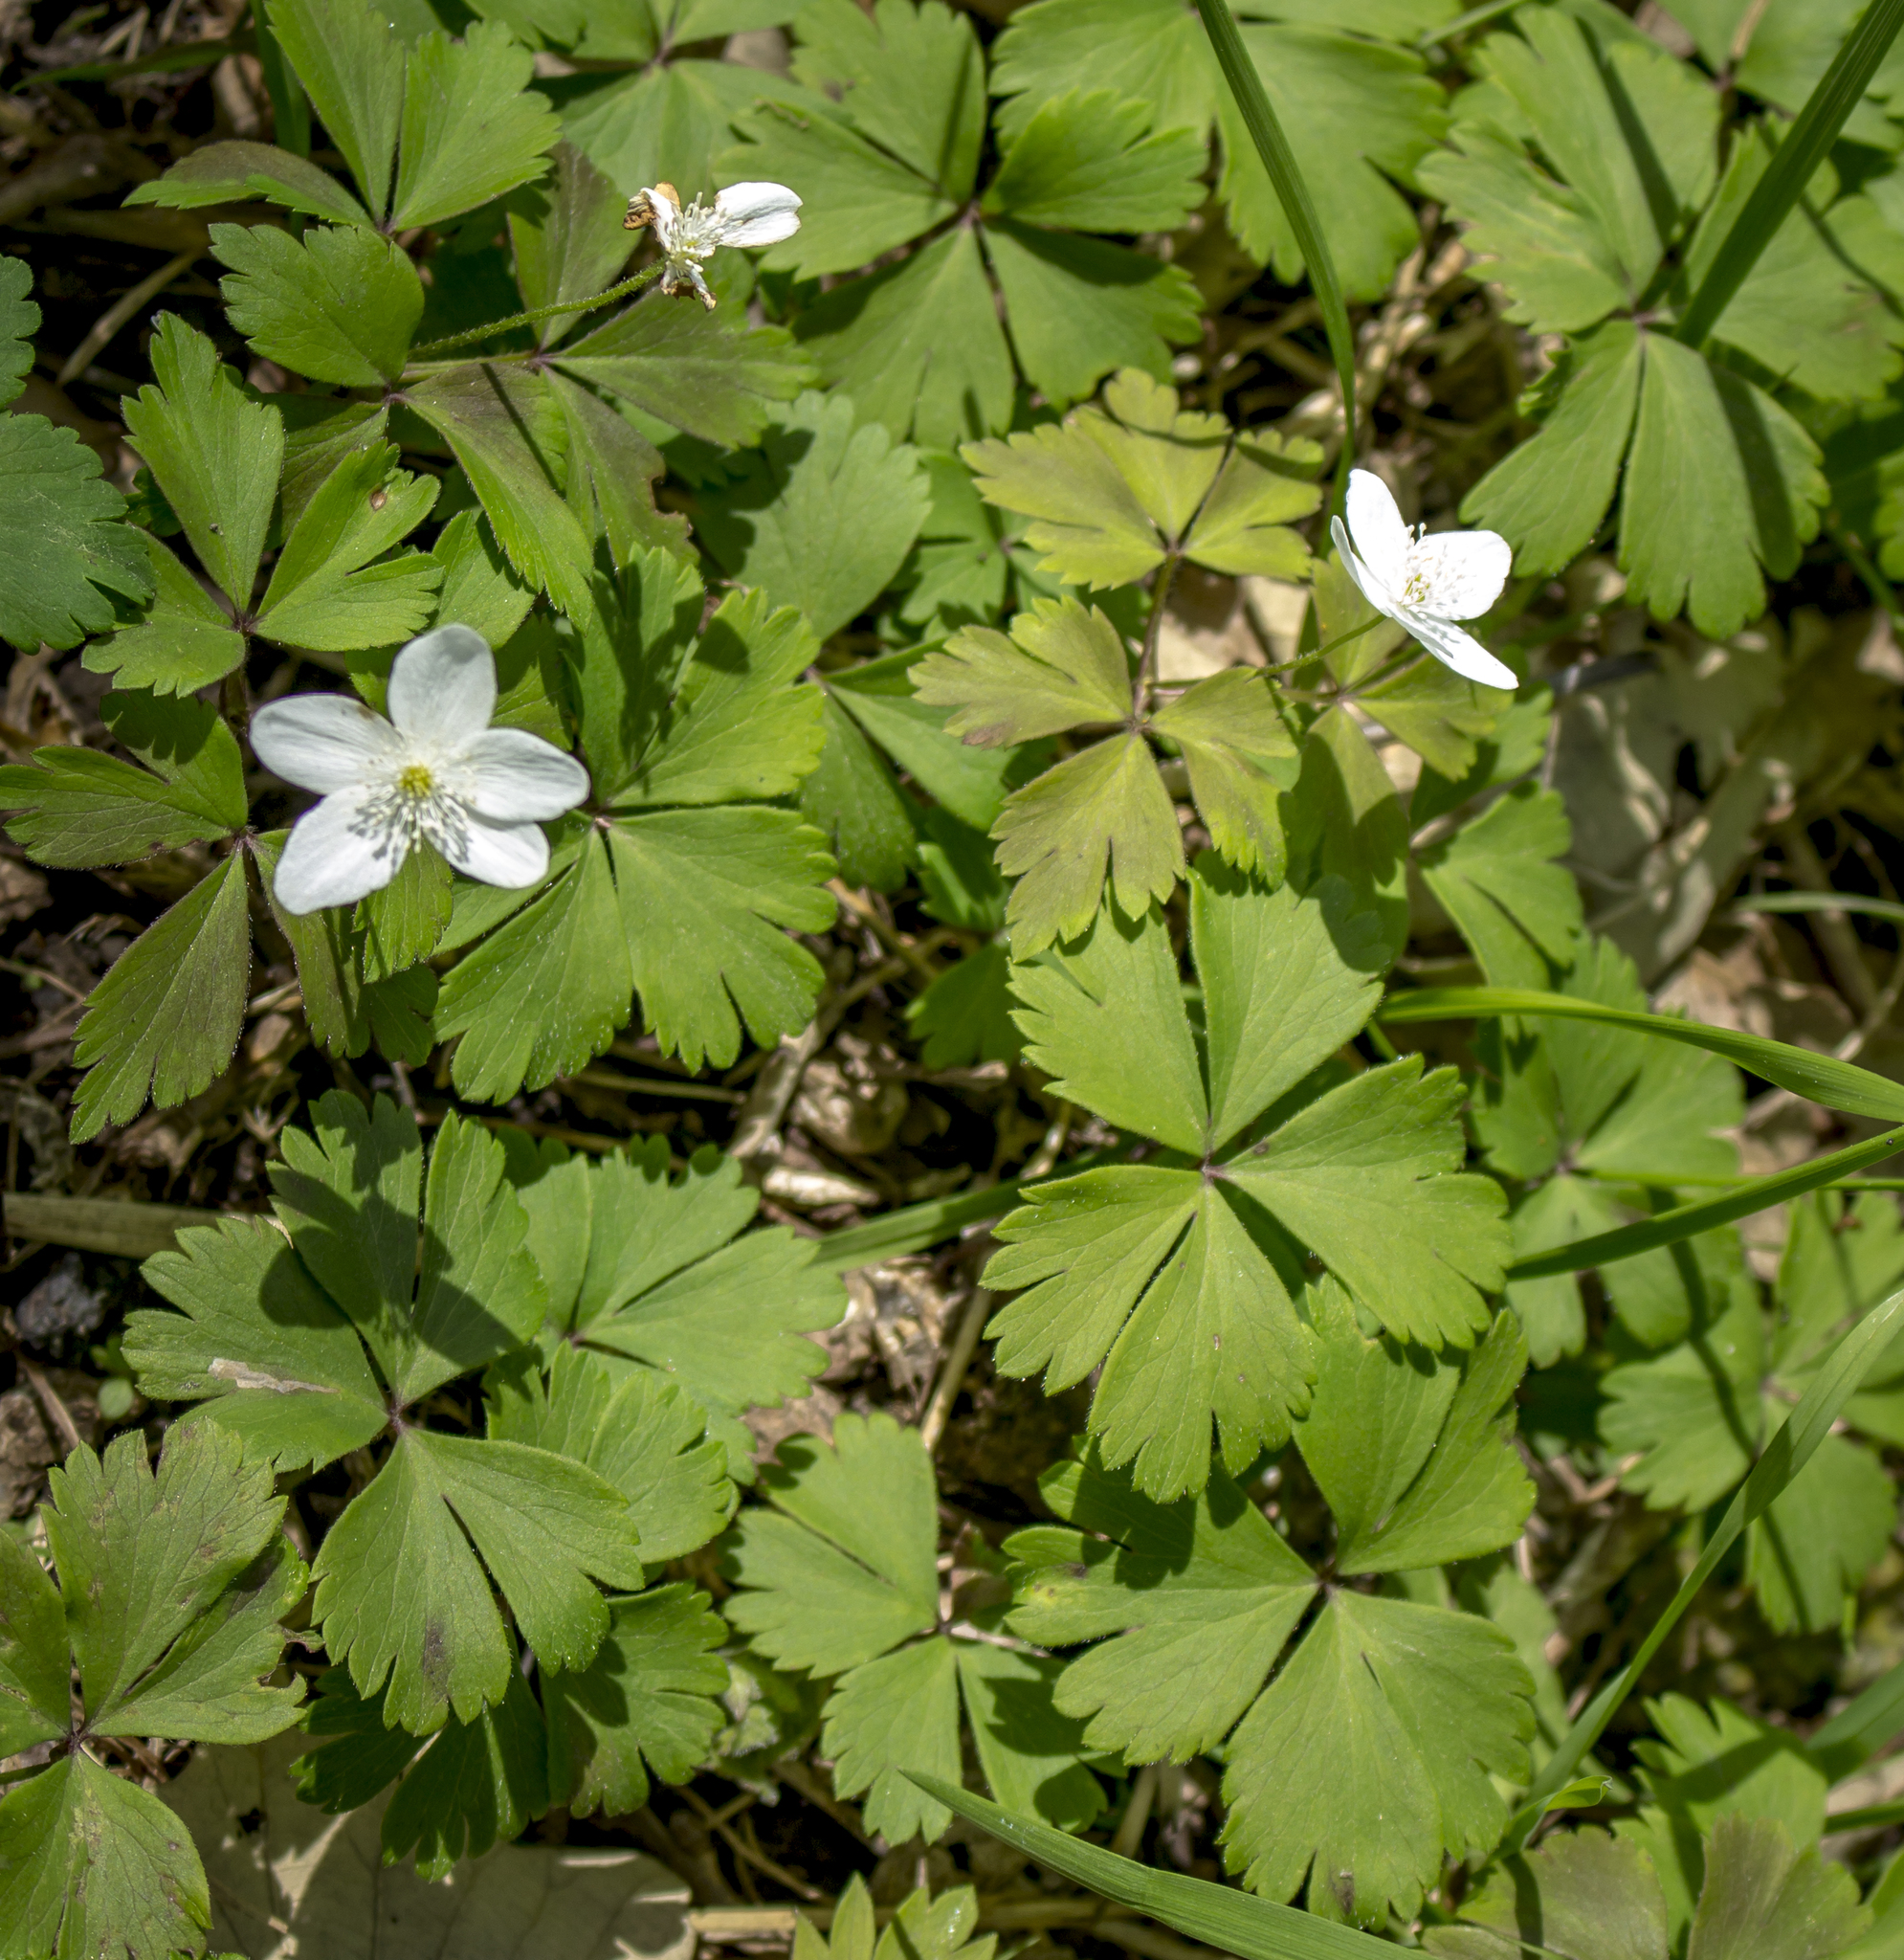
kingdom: Plantae
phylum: Tracheophyta
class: Magnoliopsida
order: Ranunculales
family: Ranunculaceae
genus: Anemone
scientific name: Anemone quinquefolia
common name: Wood anemone
